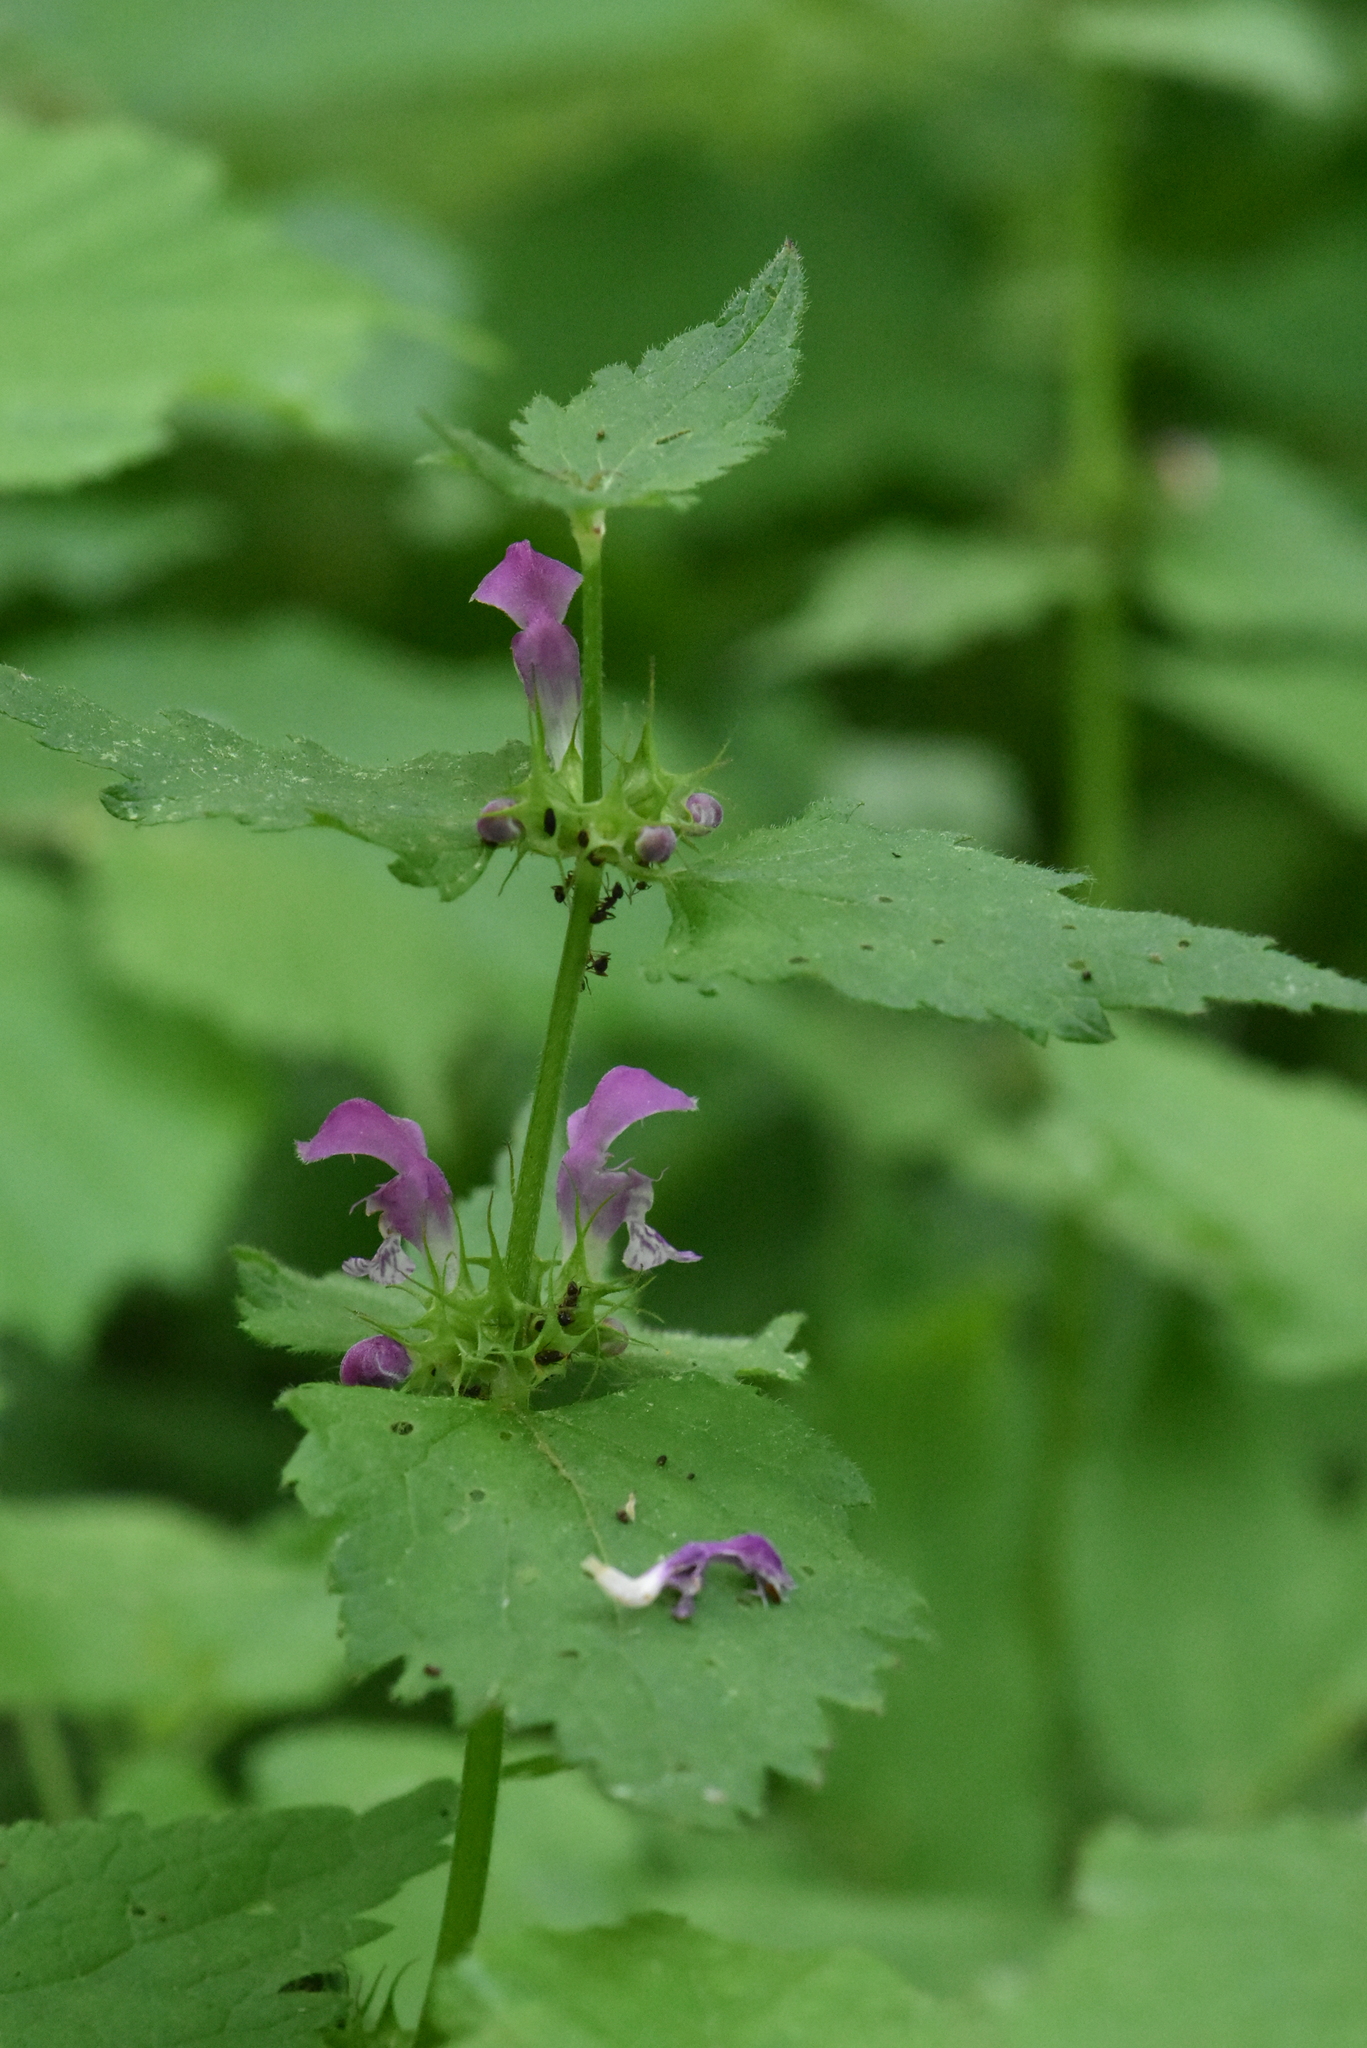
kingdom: Plantae
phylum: Tracheophyta
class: Magnoliopsida
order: Lamiales
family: Lamiaceae
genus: Lamium
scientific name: Lamium maculatum
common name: Spotted dead-nettle
